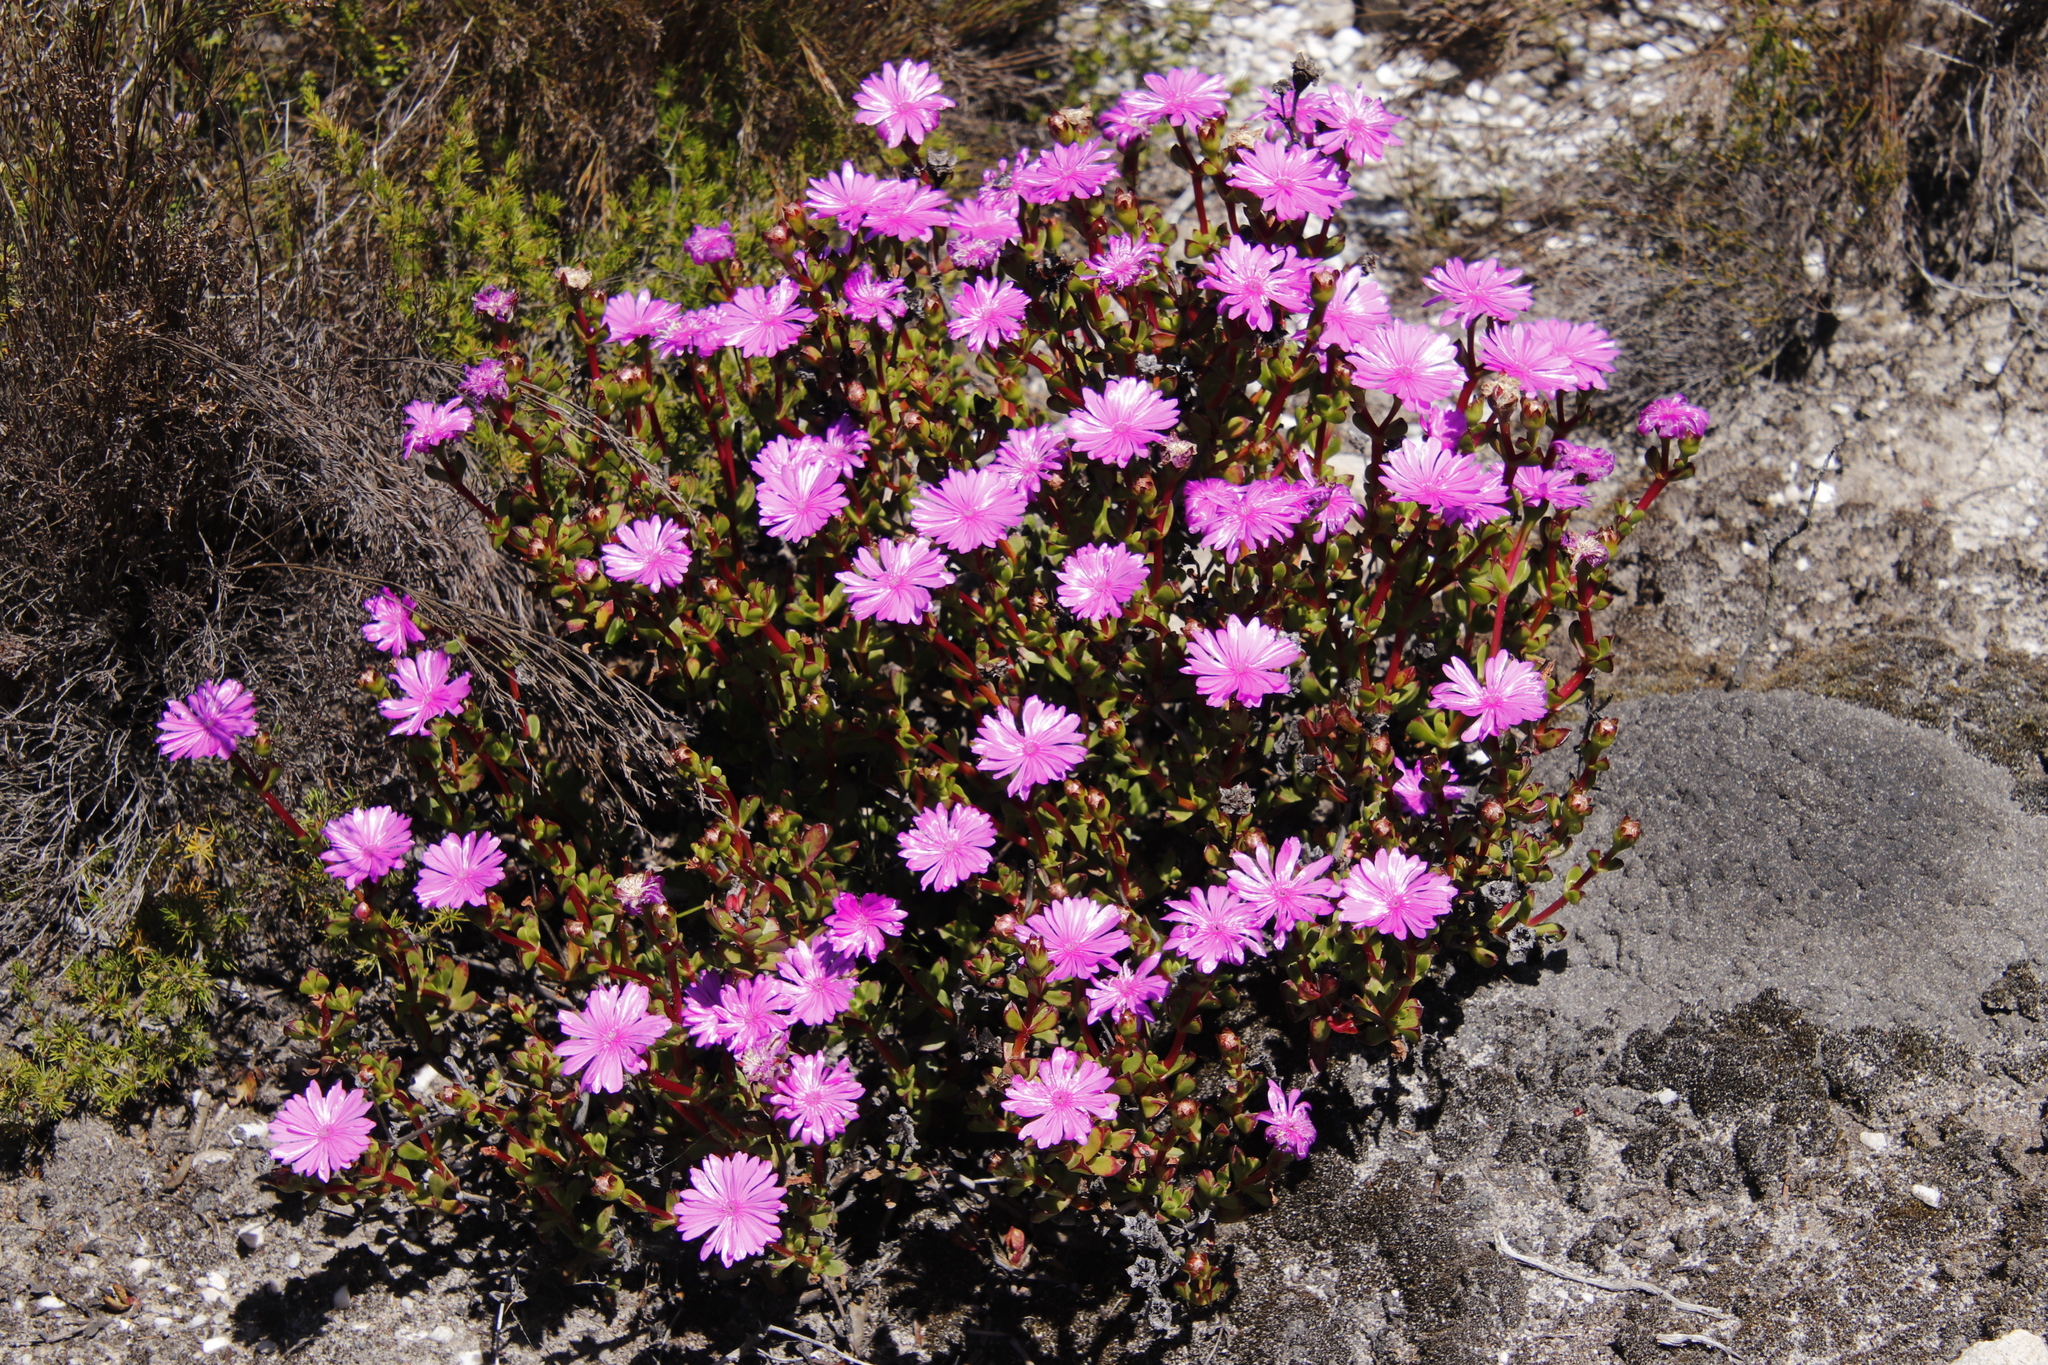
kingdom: Plantae
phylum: Tracheophyta
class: Magnoliopsida
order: Caryophyllales
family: Aizoaceae
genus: Erepsia
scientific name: Erepsia inclaudens
